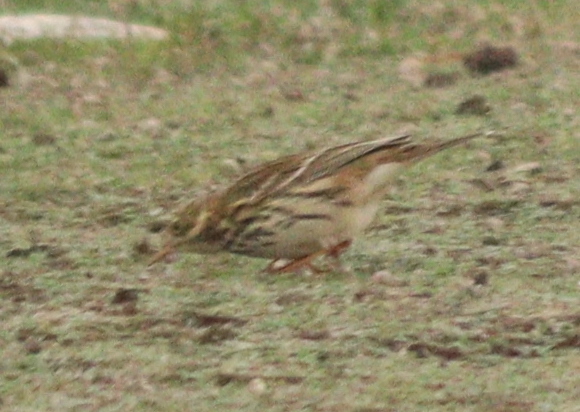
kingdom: Animalia
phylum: Chordata
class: Aves
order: Passeriformes
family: Motacillidae
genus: Anthus
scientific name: Anthus pratensis
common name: Meadow pipit
